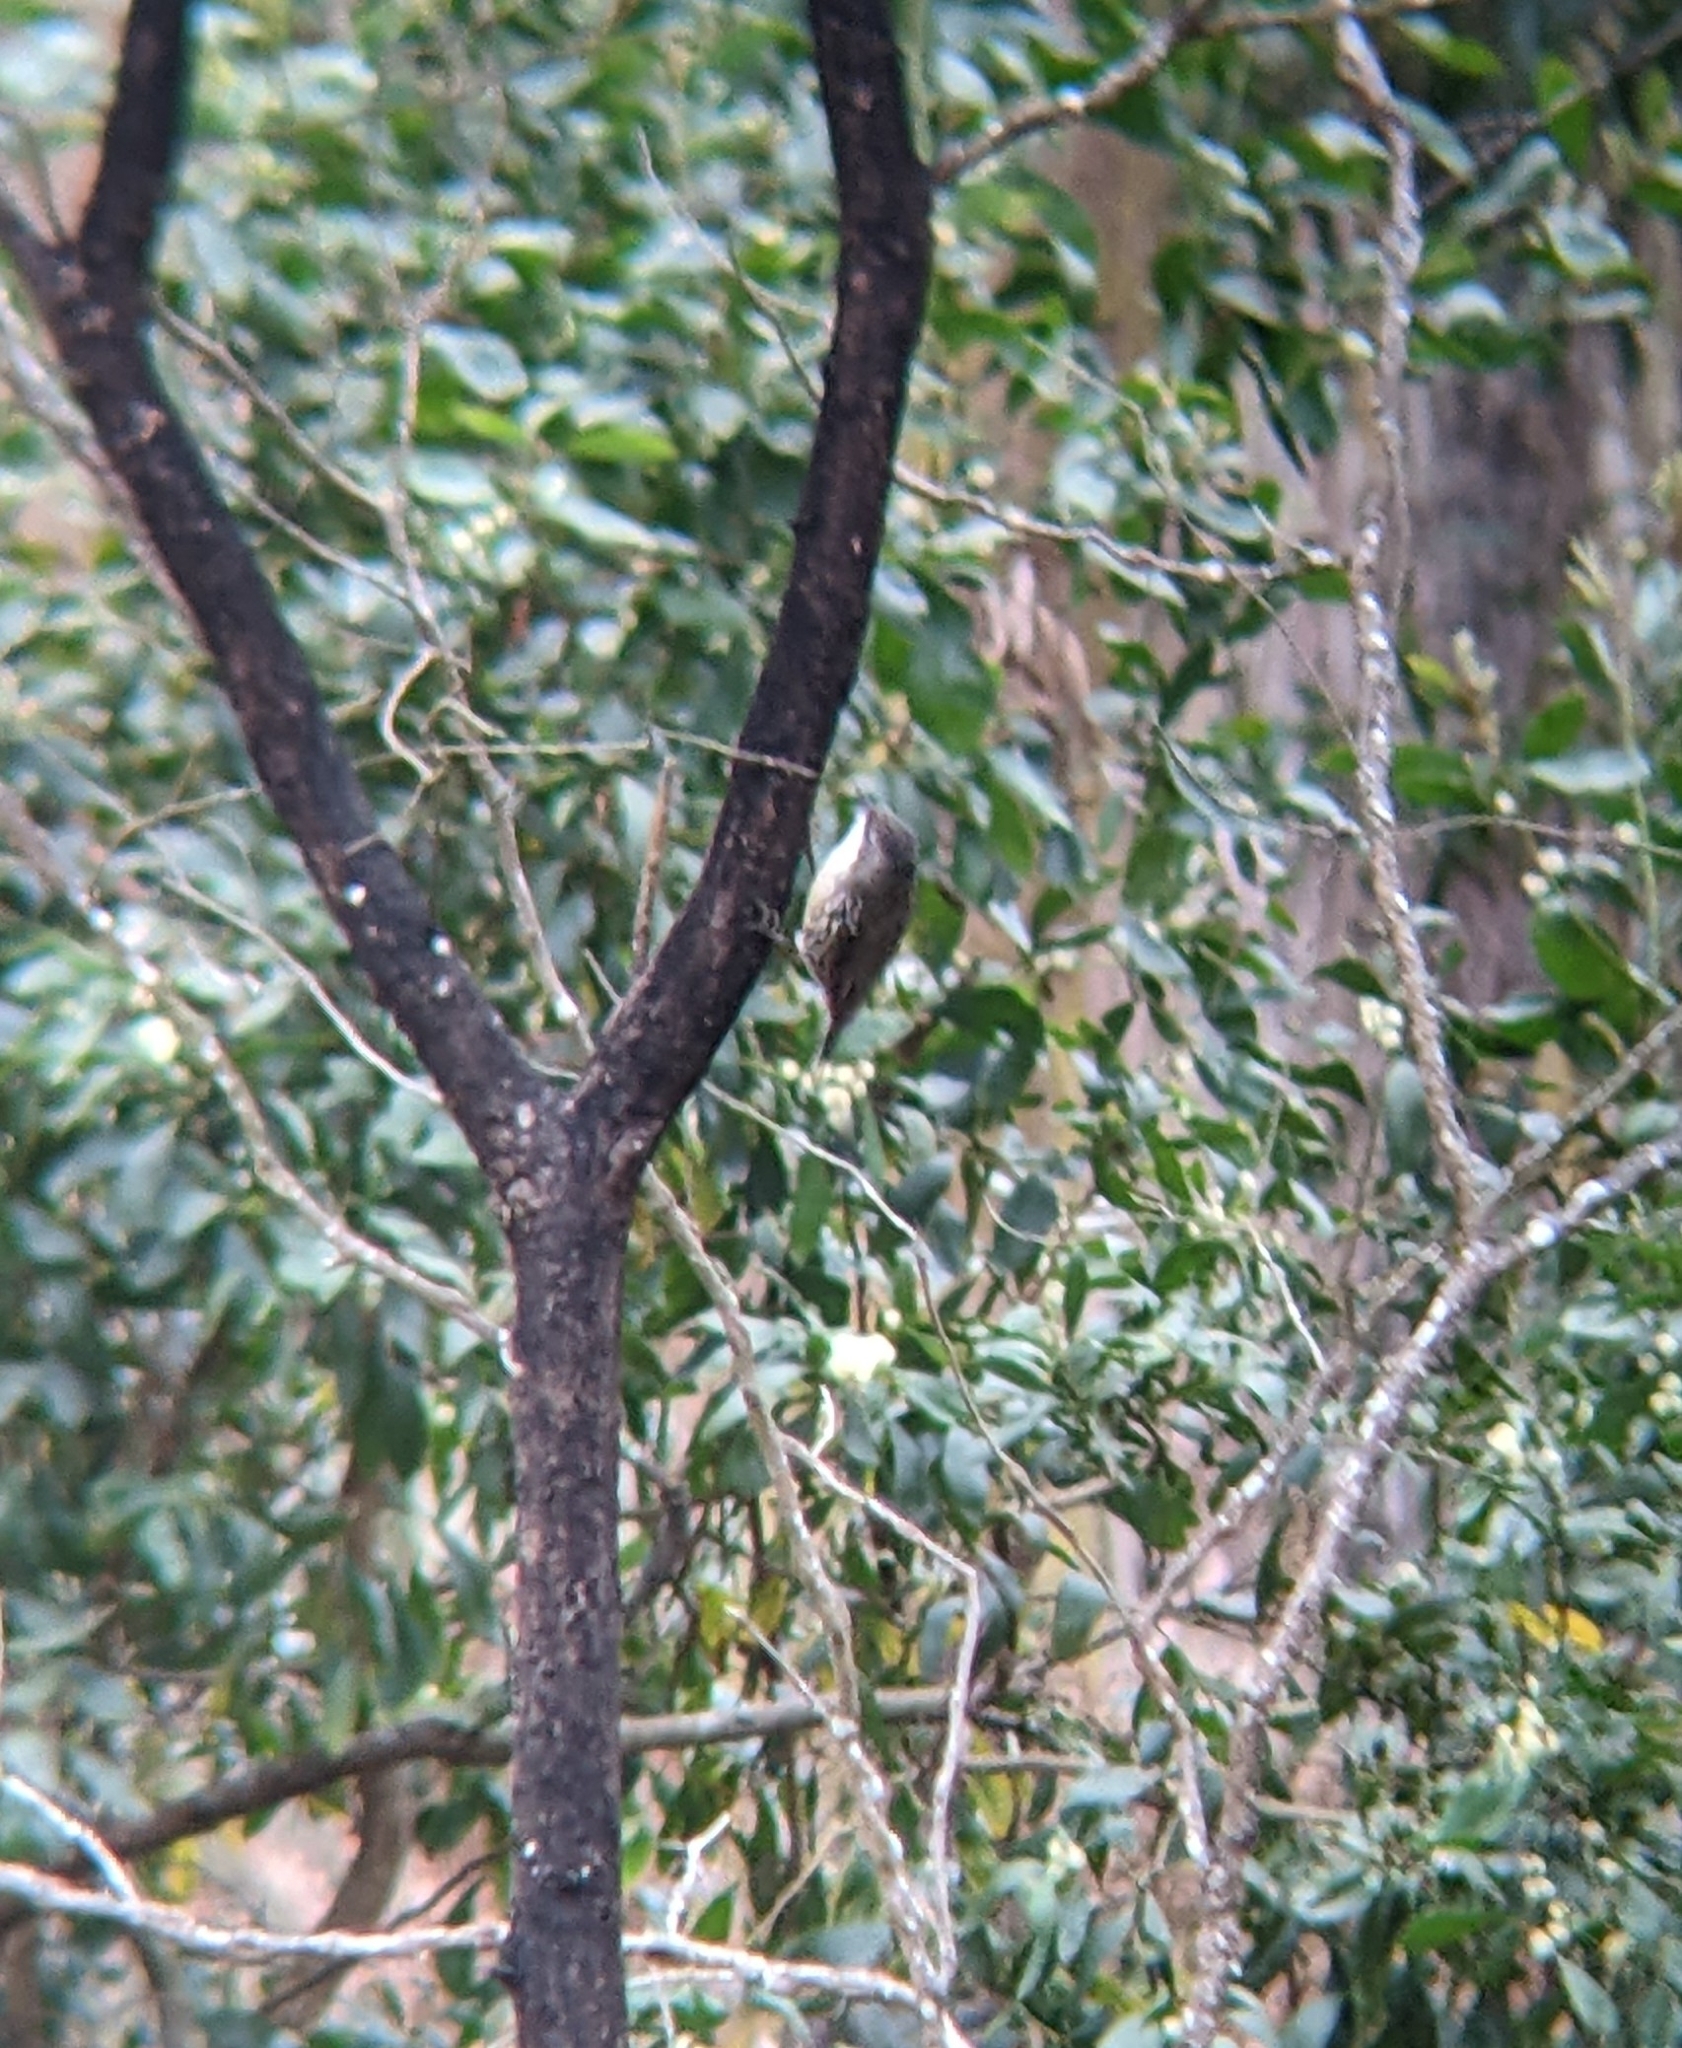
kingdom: Animalia
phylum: Chordata
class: Aves
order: Passeriformes
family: Climacteridae
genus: Cormobates
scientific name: Cormobates leucophaea
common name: White-throated treecreeper
